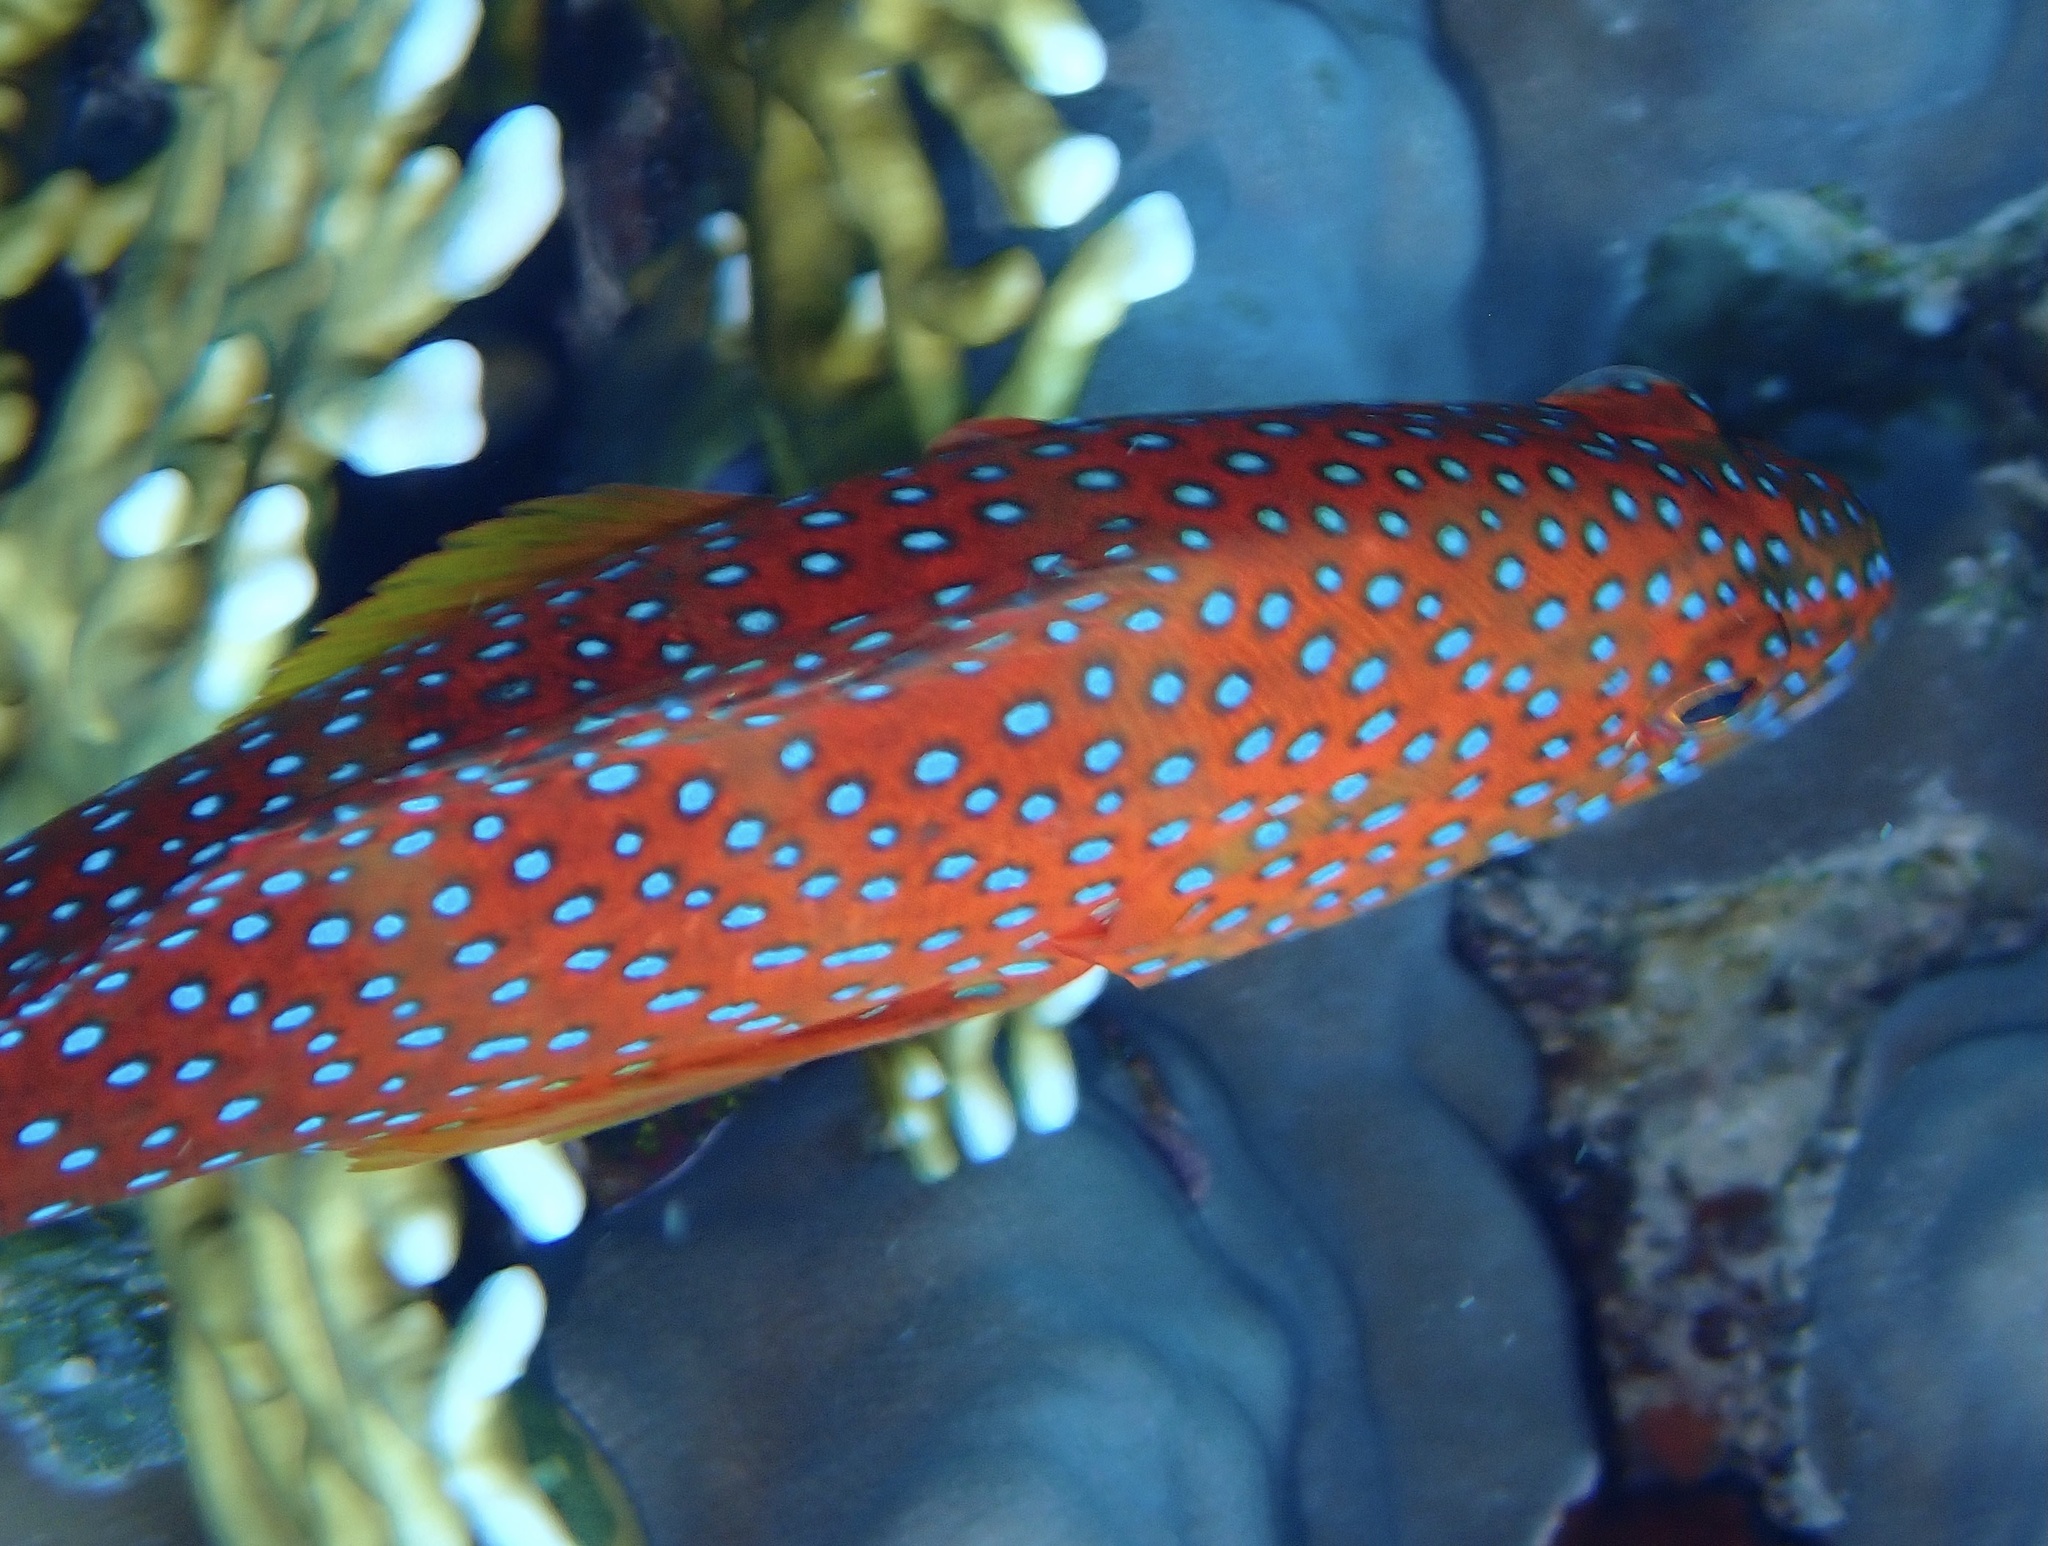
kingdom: Animalia
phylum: Chordata
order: Perciformes
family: Serranidae
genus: Cephalopholis
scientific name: Cephalopholis miniata
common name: Coral hind
